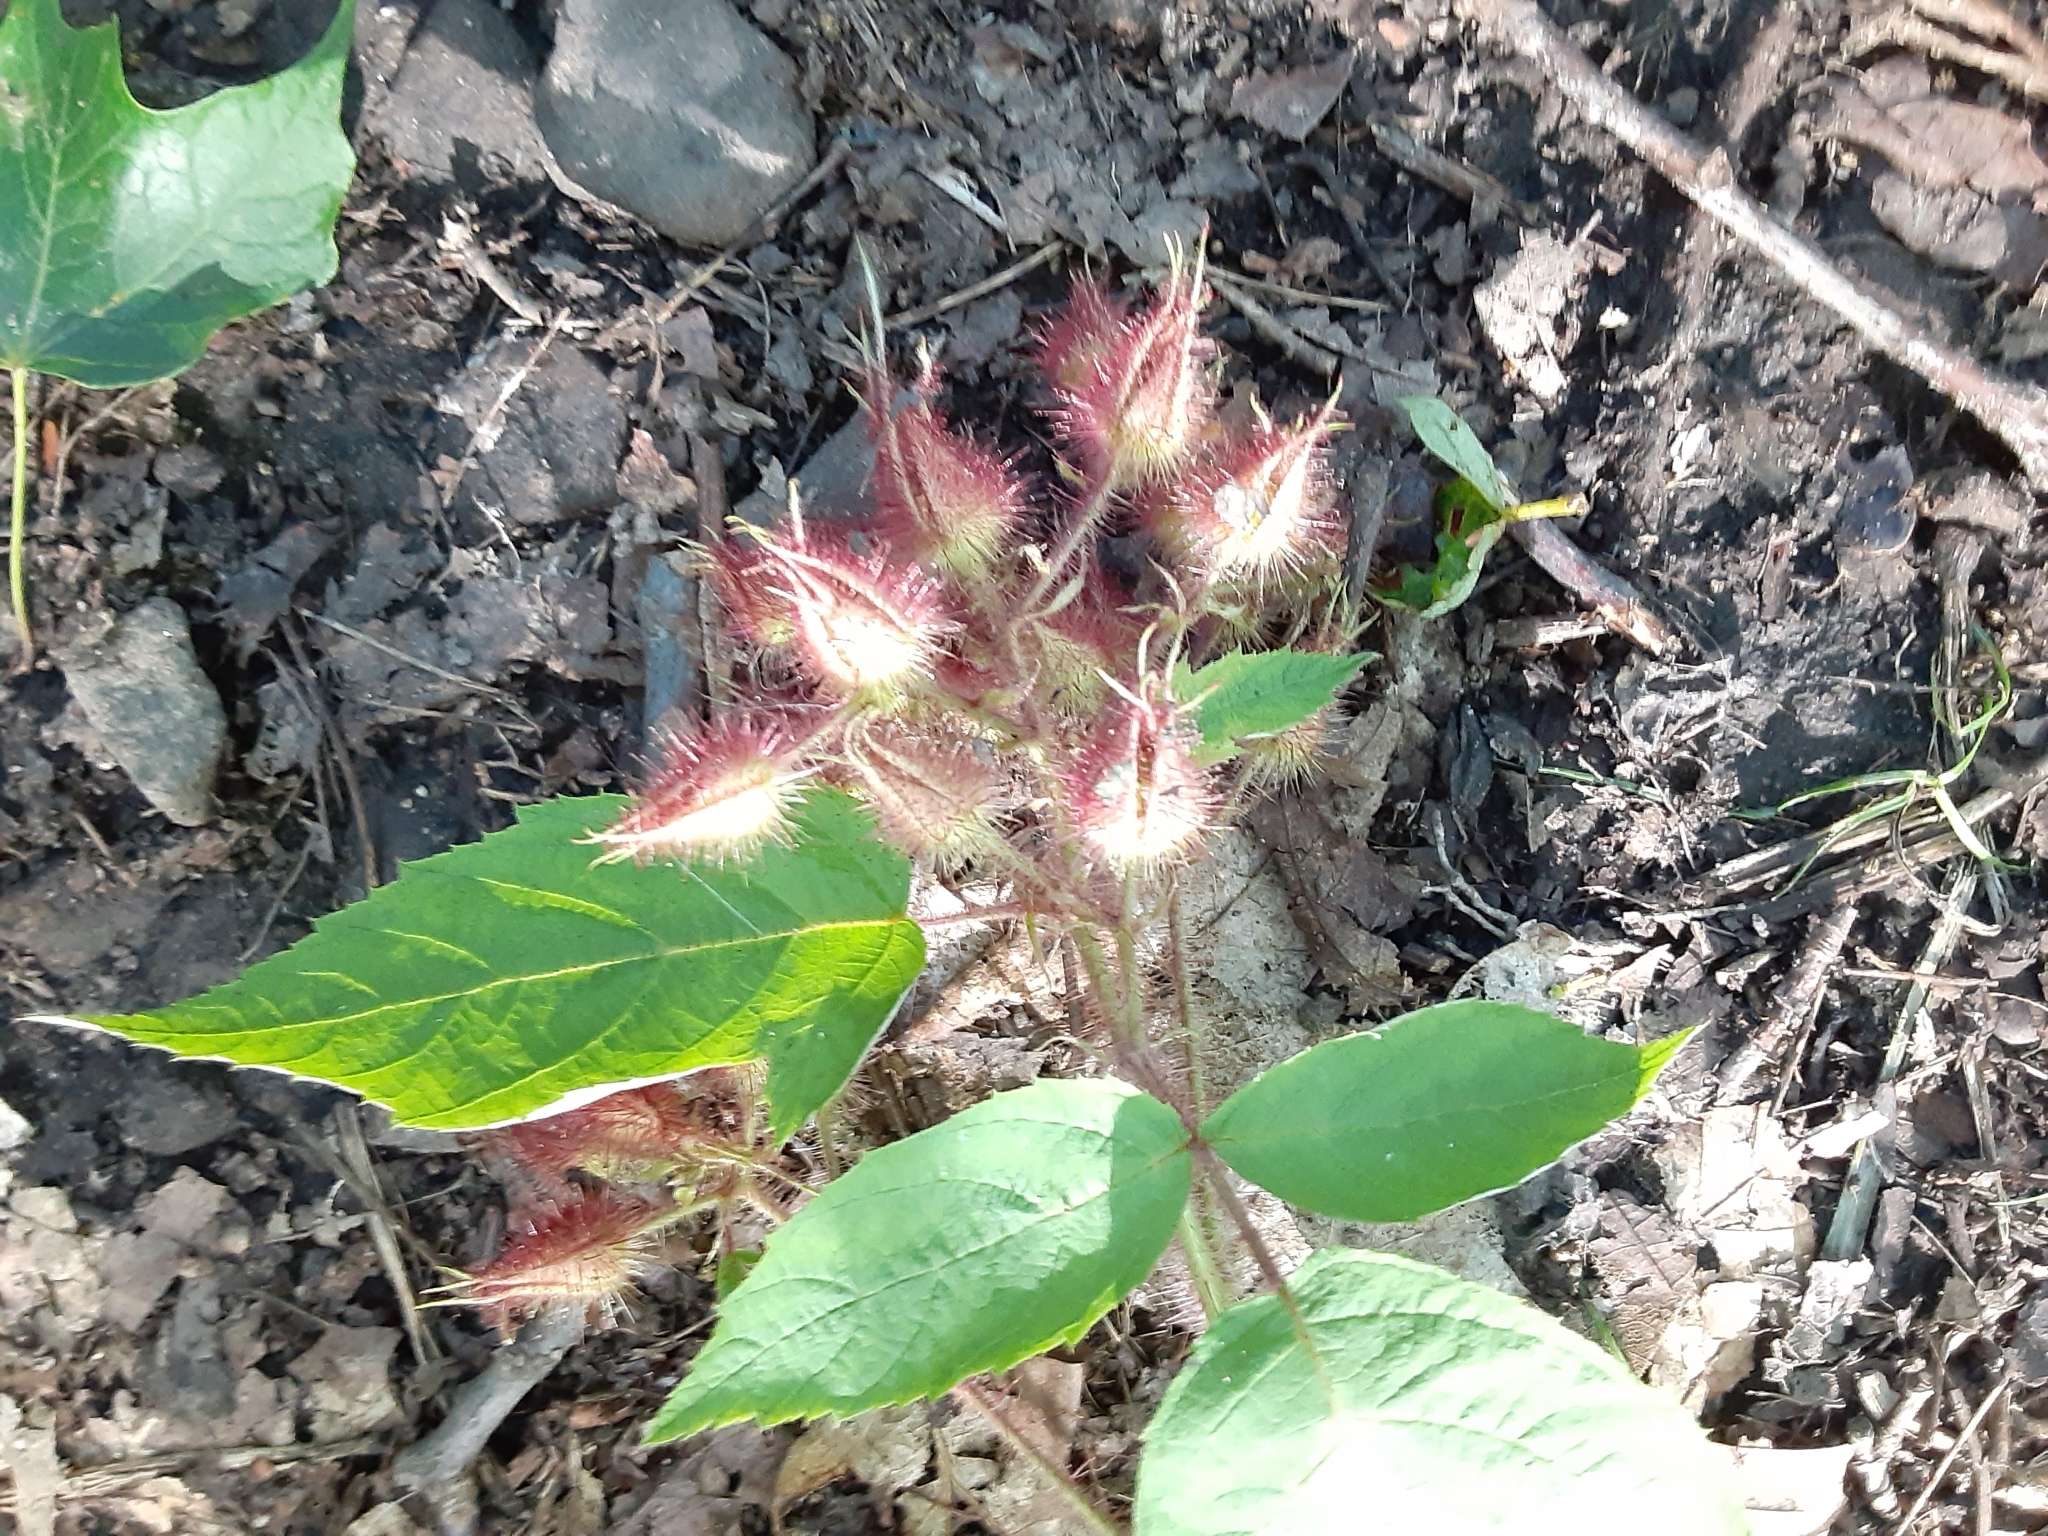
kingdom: Plantae
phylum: Tracheophyta
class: Magnoliopsida
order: Rosales
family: Rosaceae
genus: Rubus
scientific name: Rubus phoenicolasius
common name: Japanese wineberry
